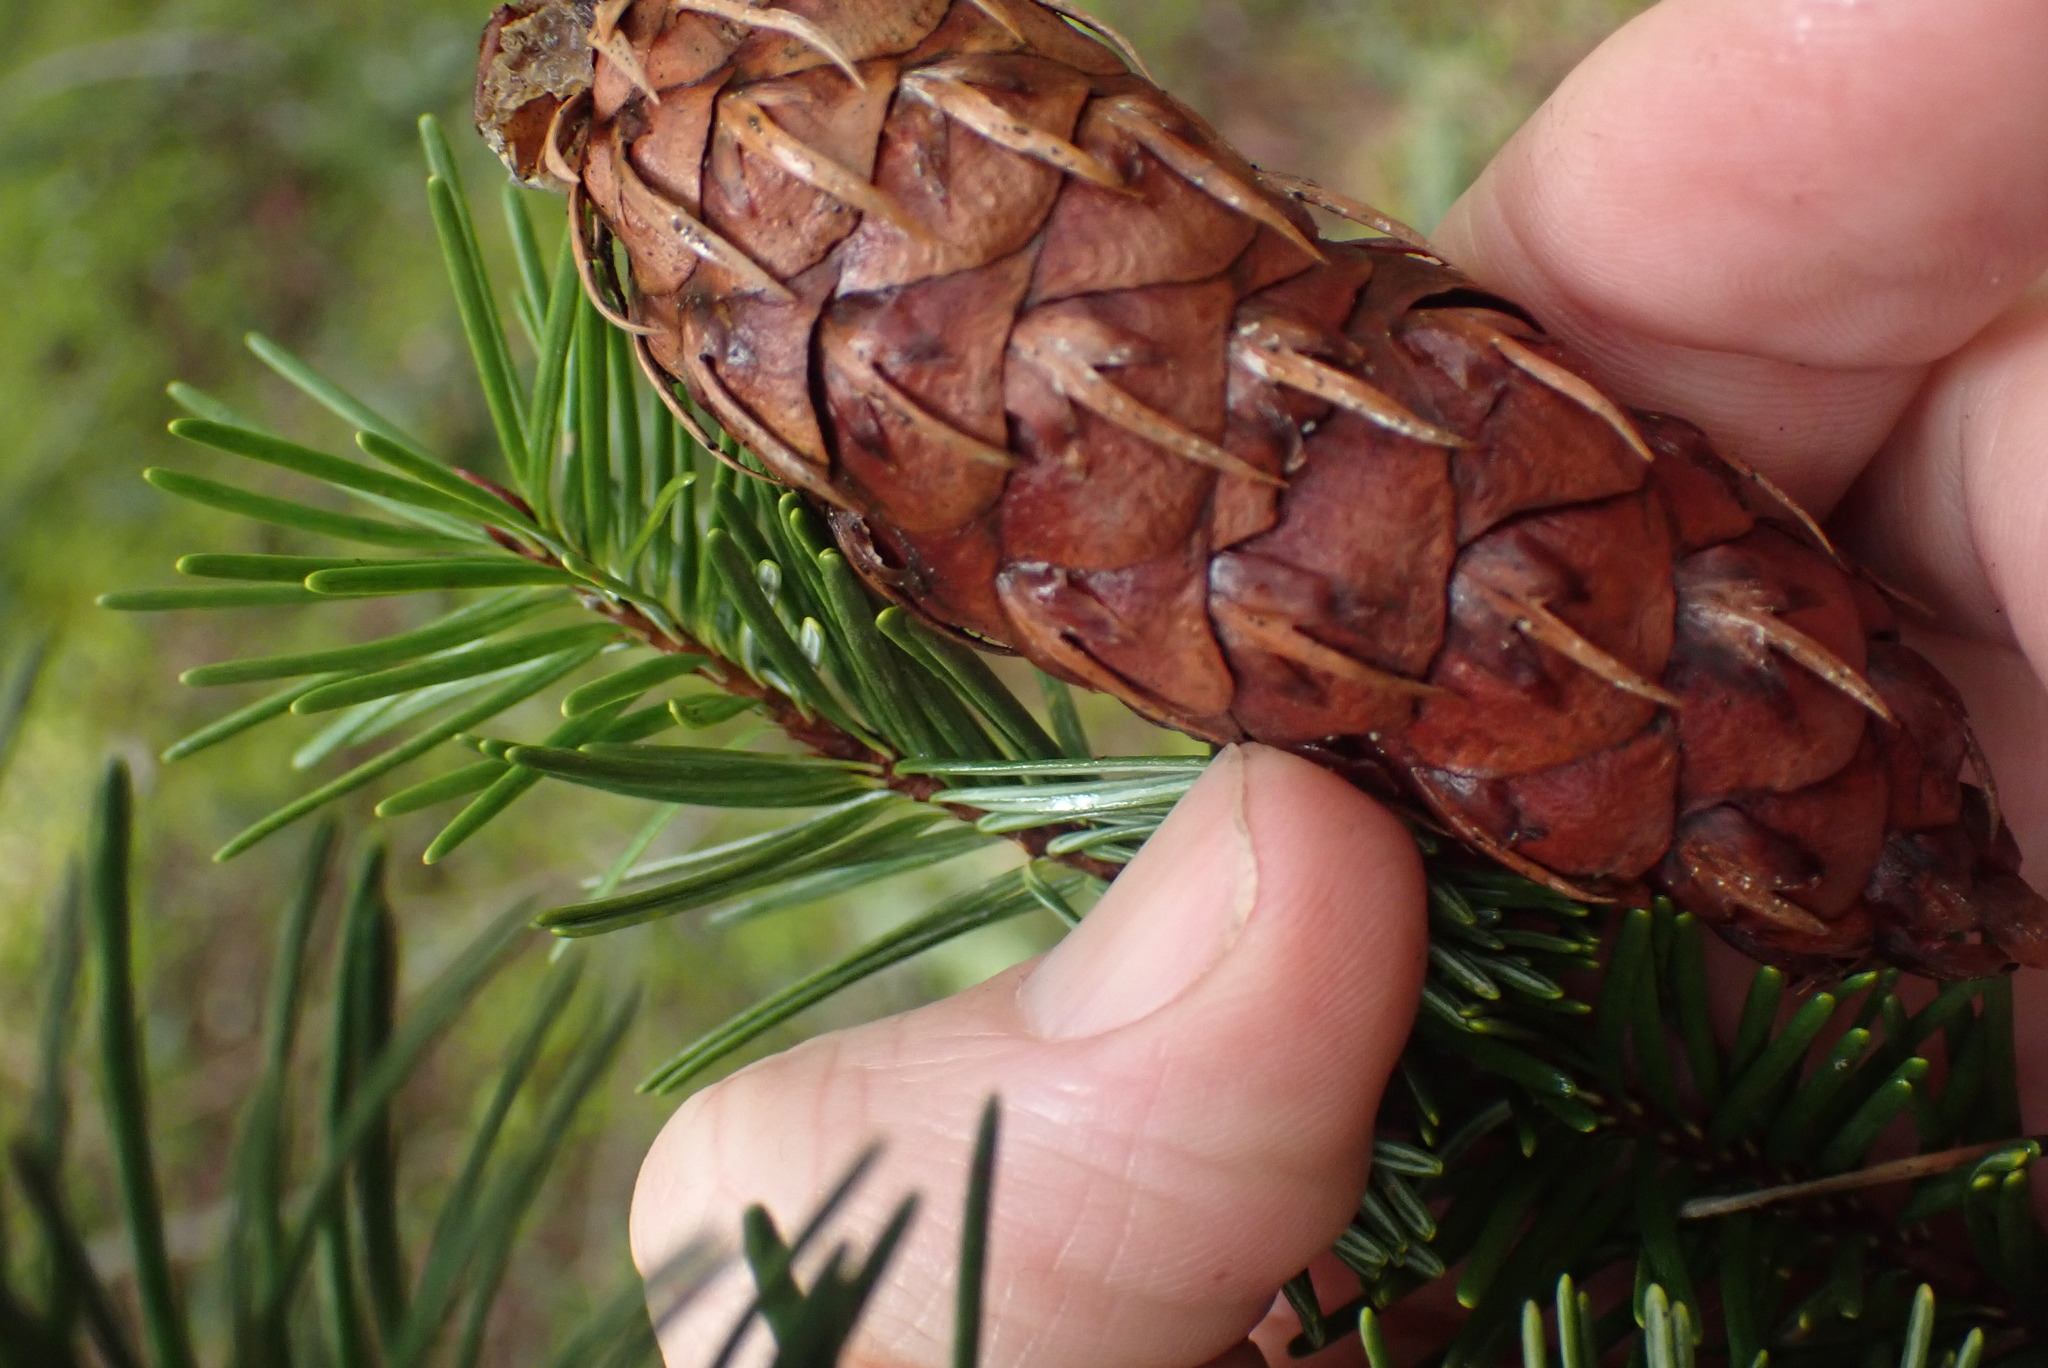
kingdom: Plantae
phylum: Tracheophyta
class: Pinopsida
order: Pinales
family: Pinaceae
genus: Pseudotsuga
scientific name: Pseudotsuga menziesii
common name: Douglas fir
